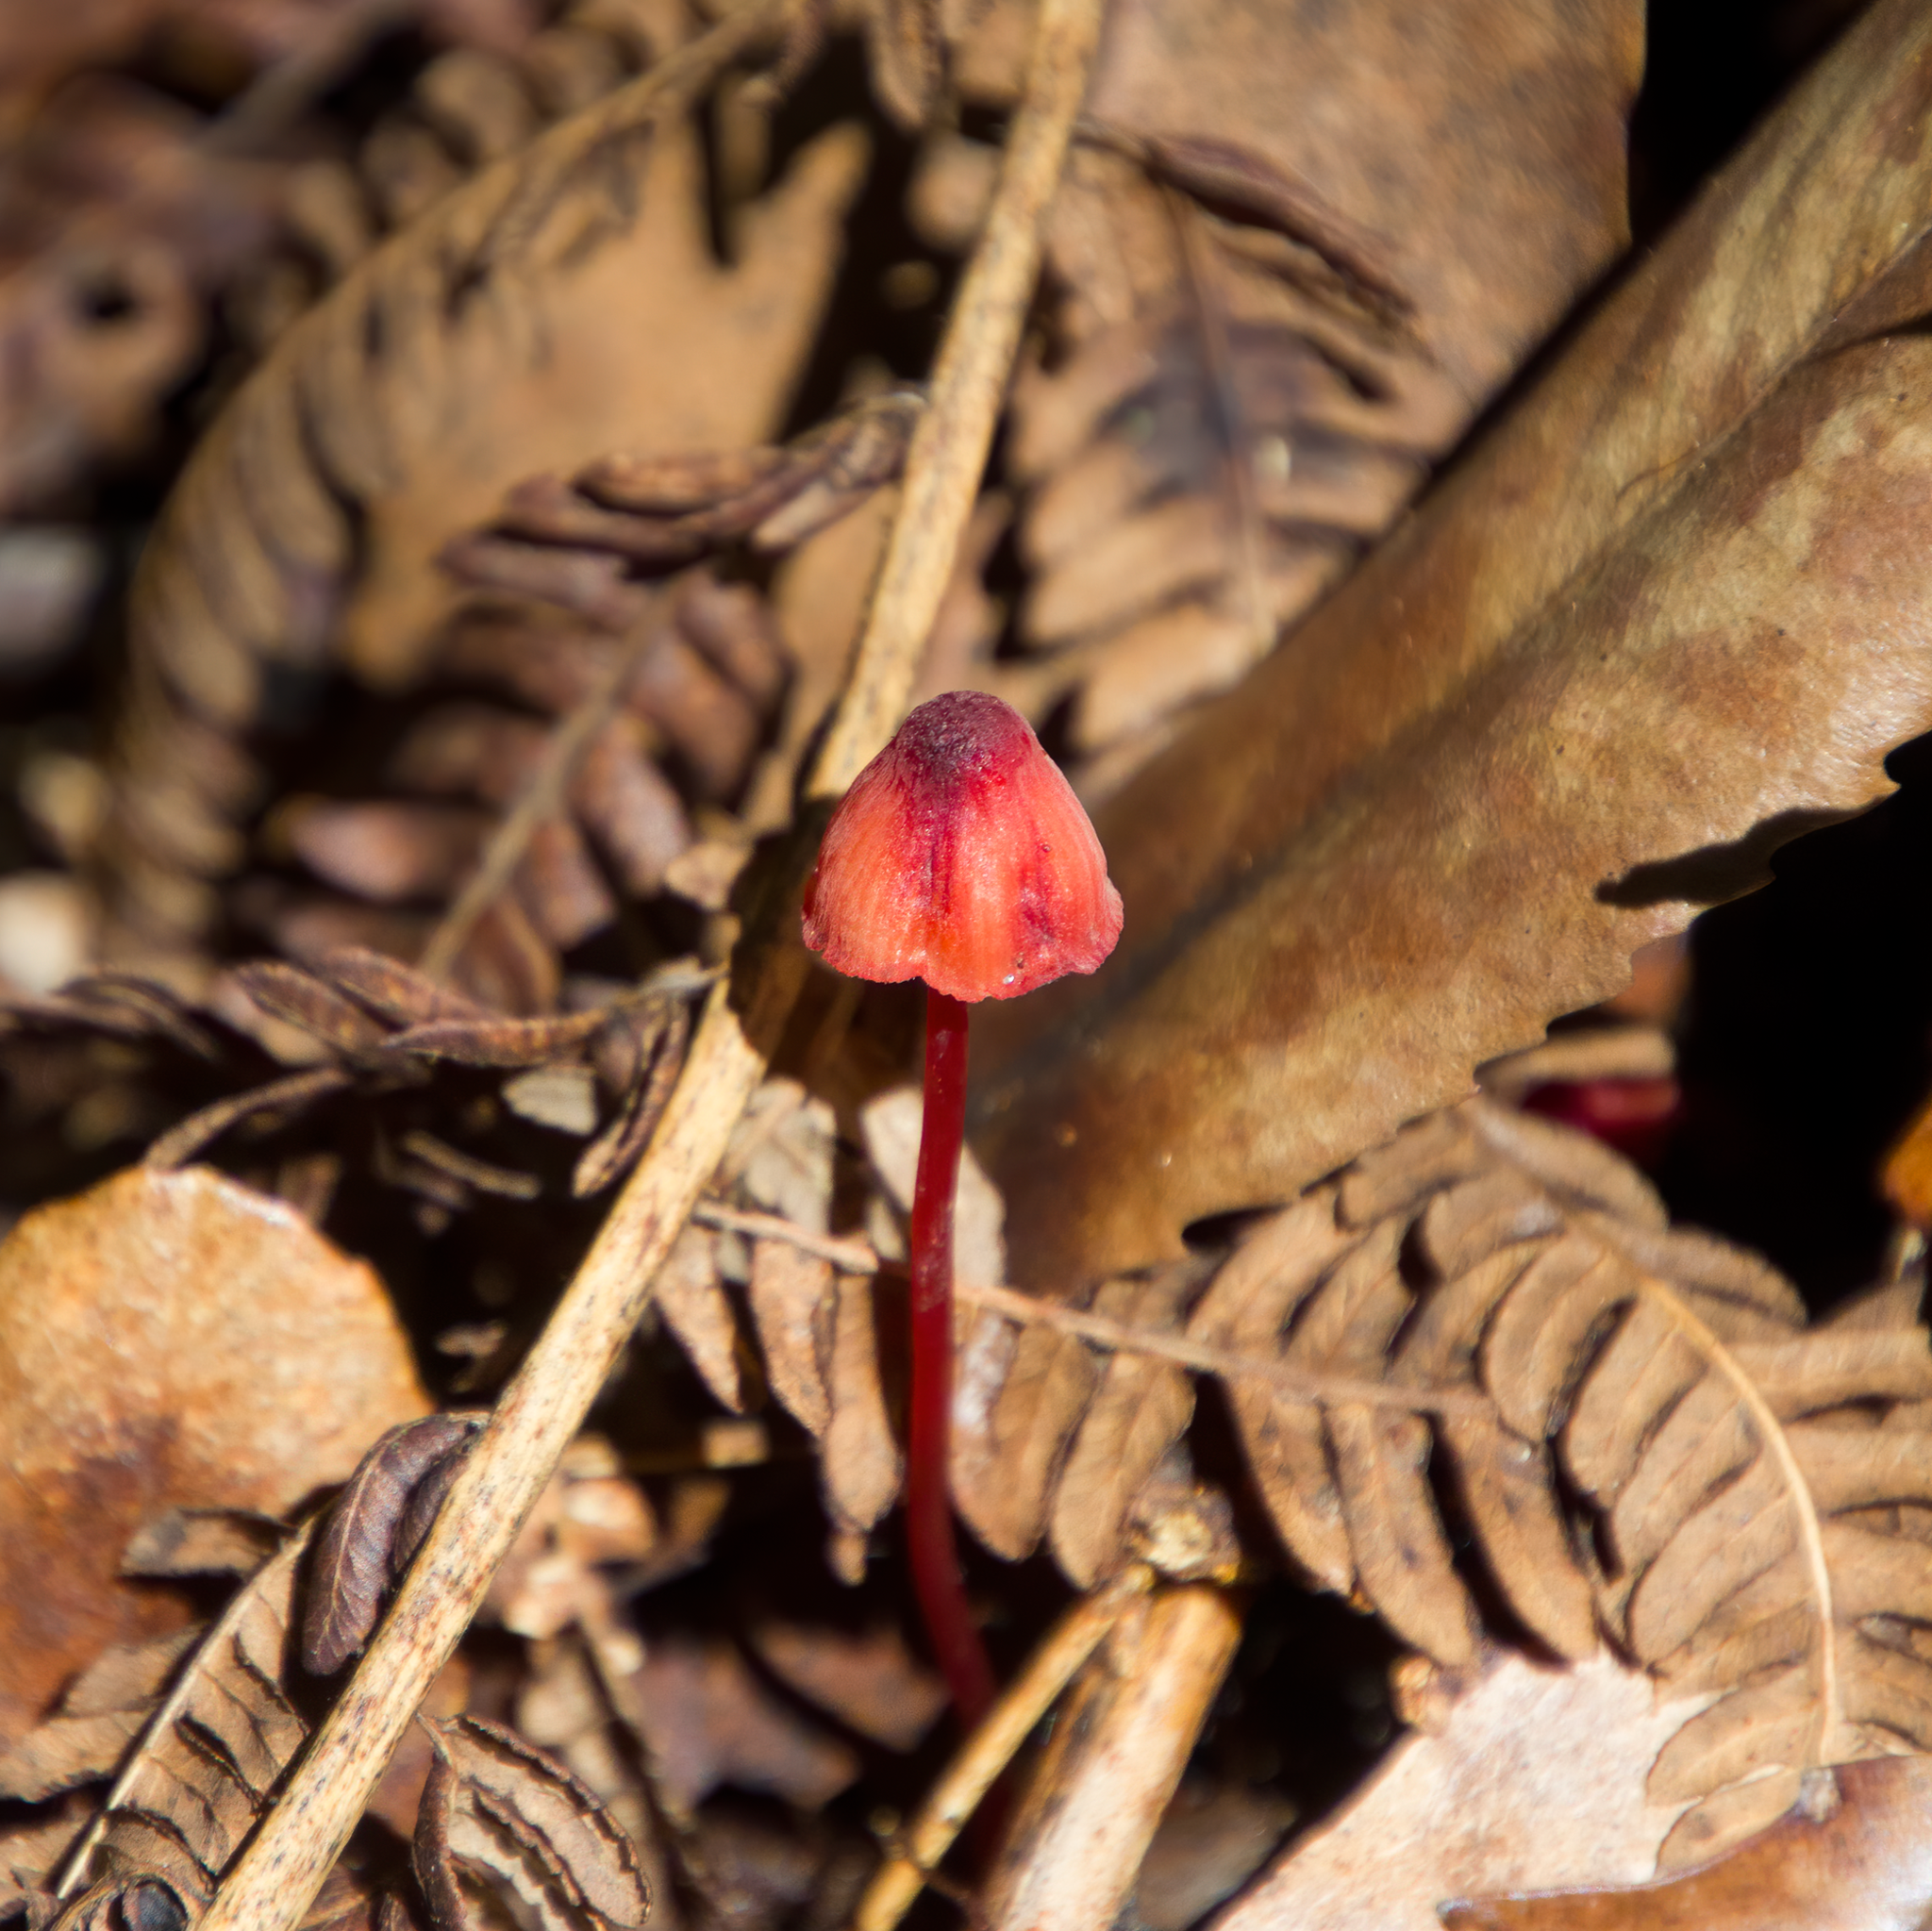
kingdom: Fungi
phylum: Basidiomycota
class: Agaricomycetes
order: Agaricales
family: Mycenaceae
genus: Mycena
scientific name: Mycena ura
